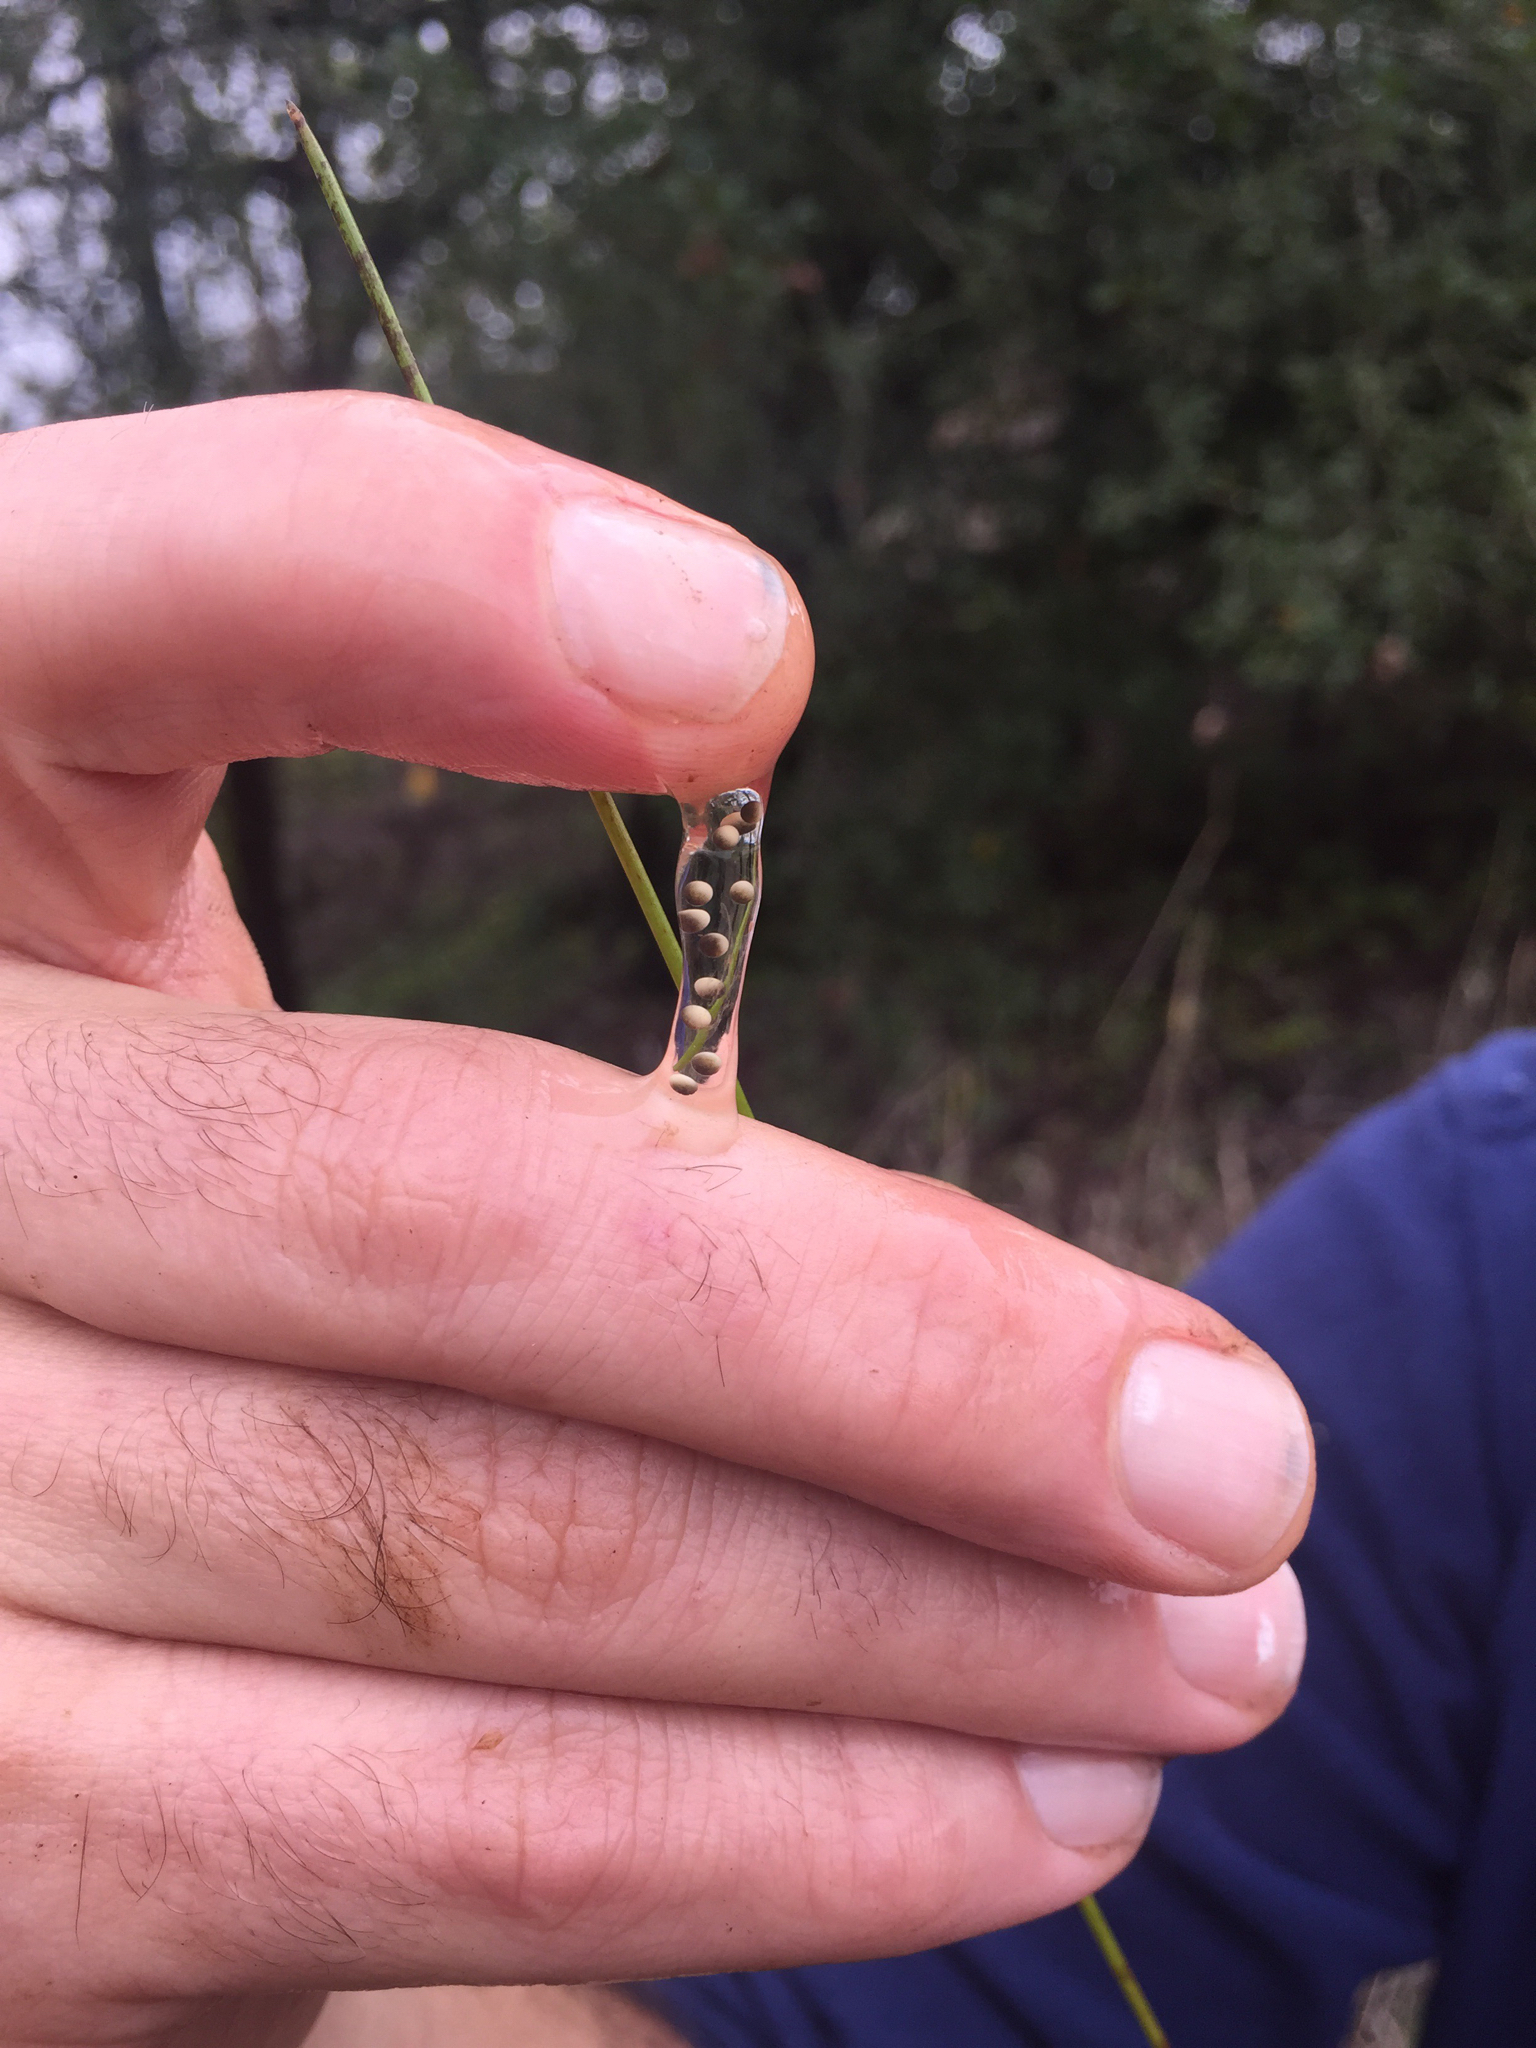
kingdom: Animalia
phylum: Chordata
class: Amphibia
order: Anura
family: Hylidae
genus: Pseudacris
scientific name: Pseudacris regilla
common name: Pacific chorus frog
